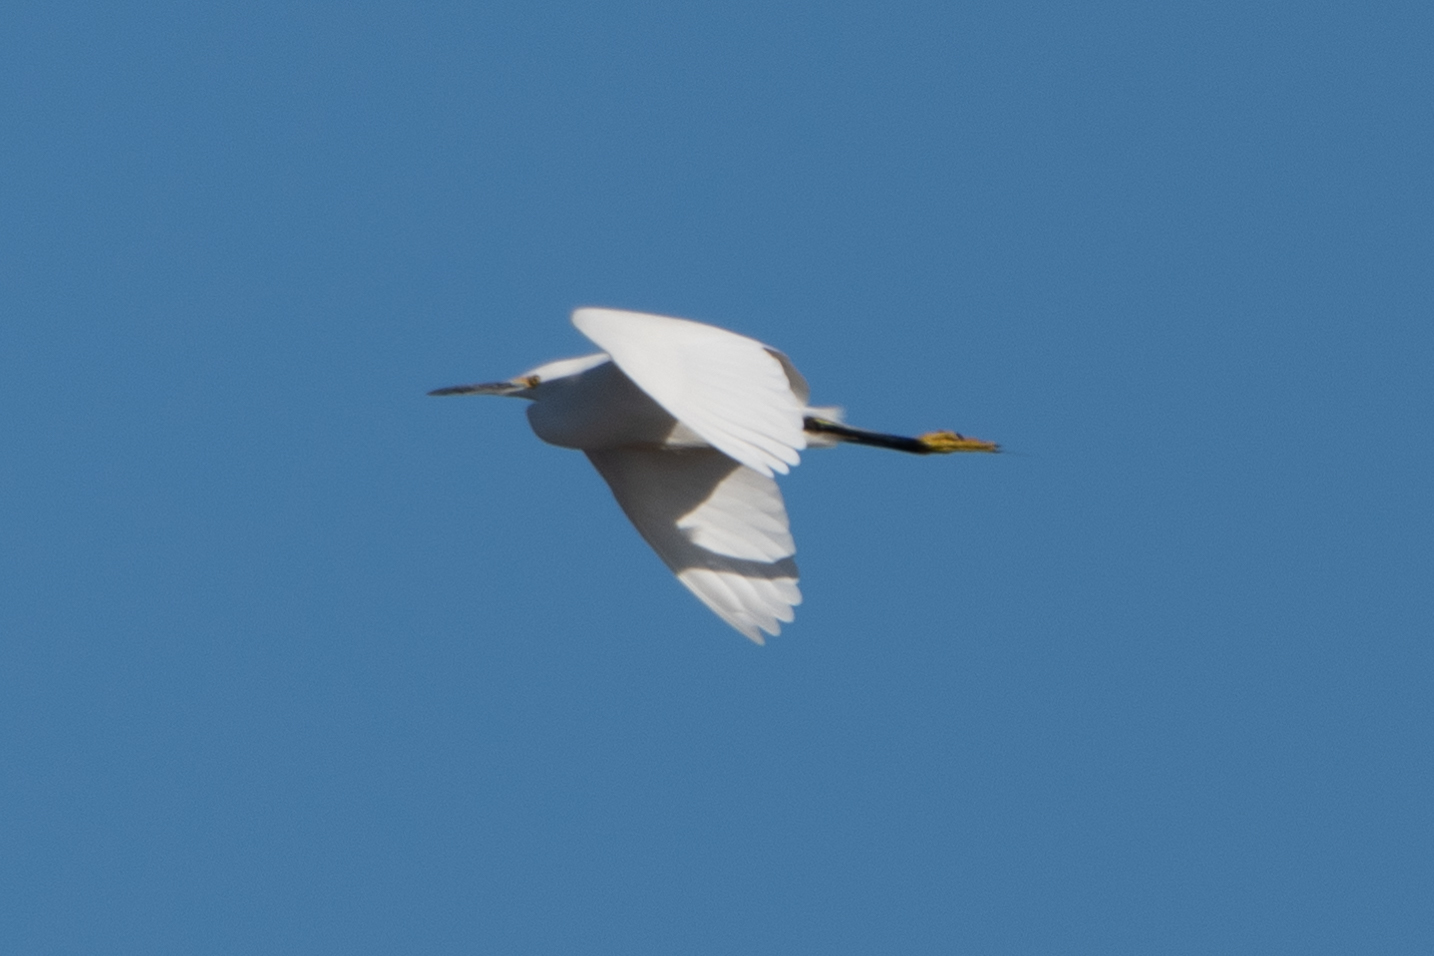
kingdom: Animalia
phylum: Chordata
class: Aves
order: Pelecaniformes
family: Ardeidae
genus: Egretta
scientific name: Egretta thula
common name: Snowy egret
